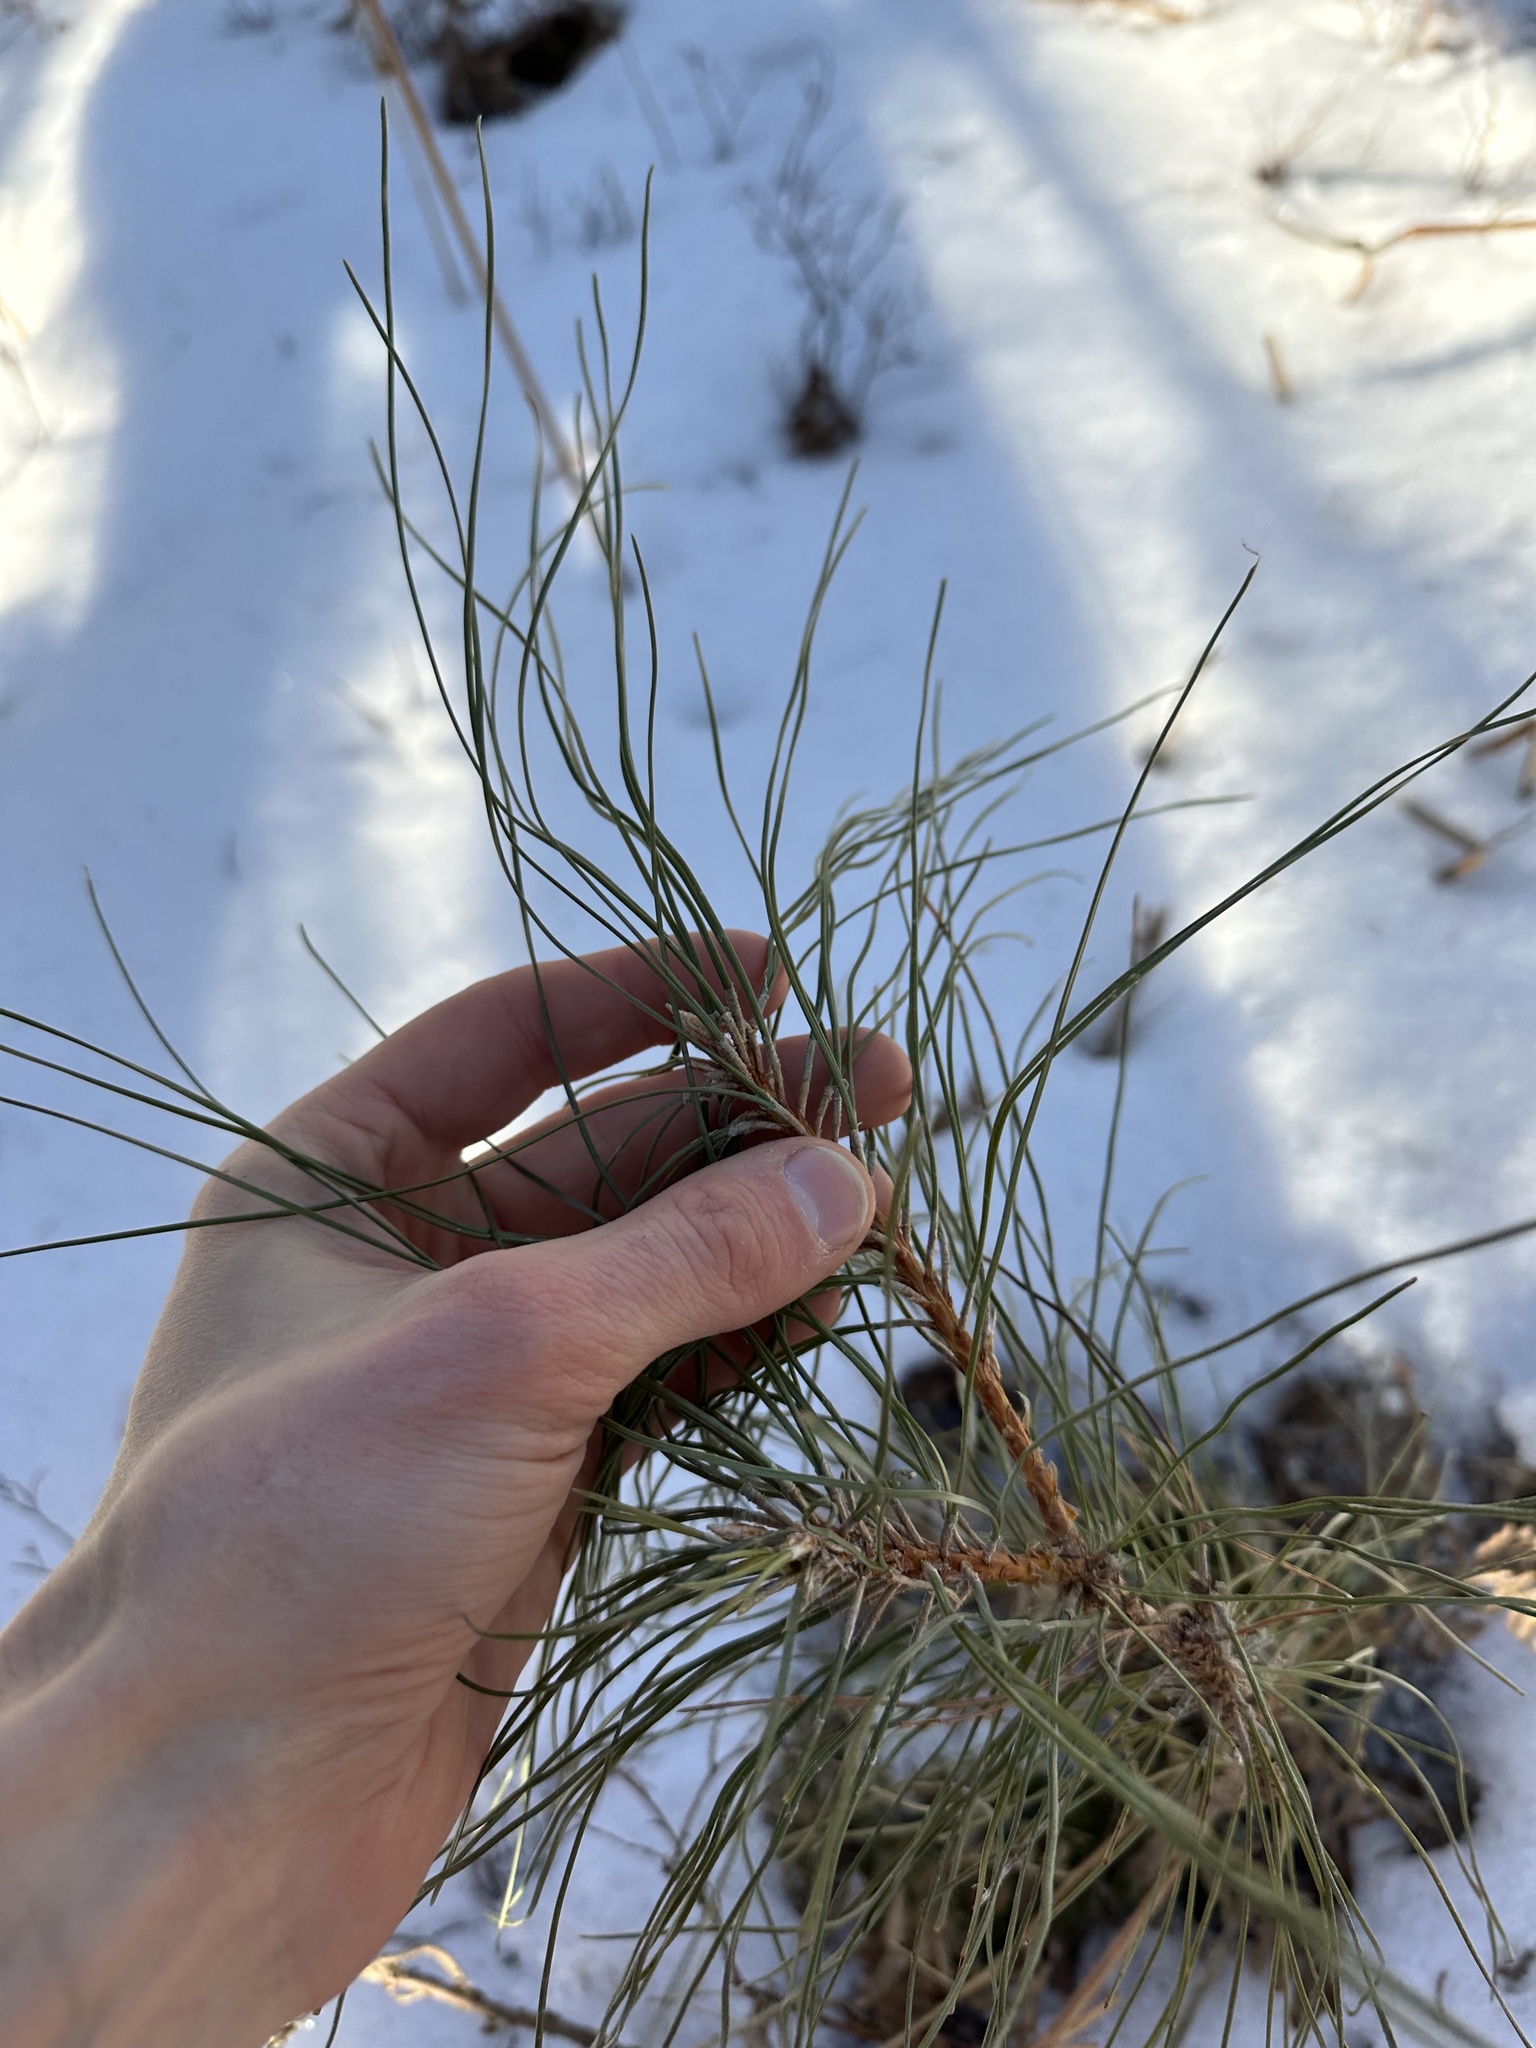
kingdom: Plantae
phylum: Tracheophyta
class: Pinopsida
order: Pinales
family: Pinaceae
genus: Pinus
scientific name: Pinus resinosa
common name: Norway pine
